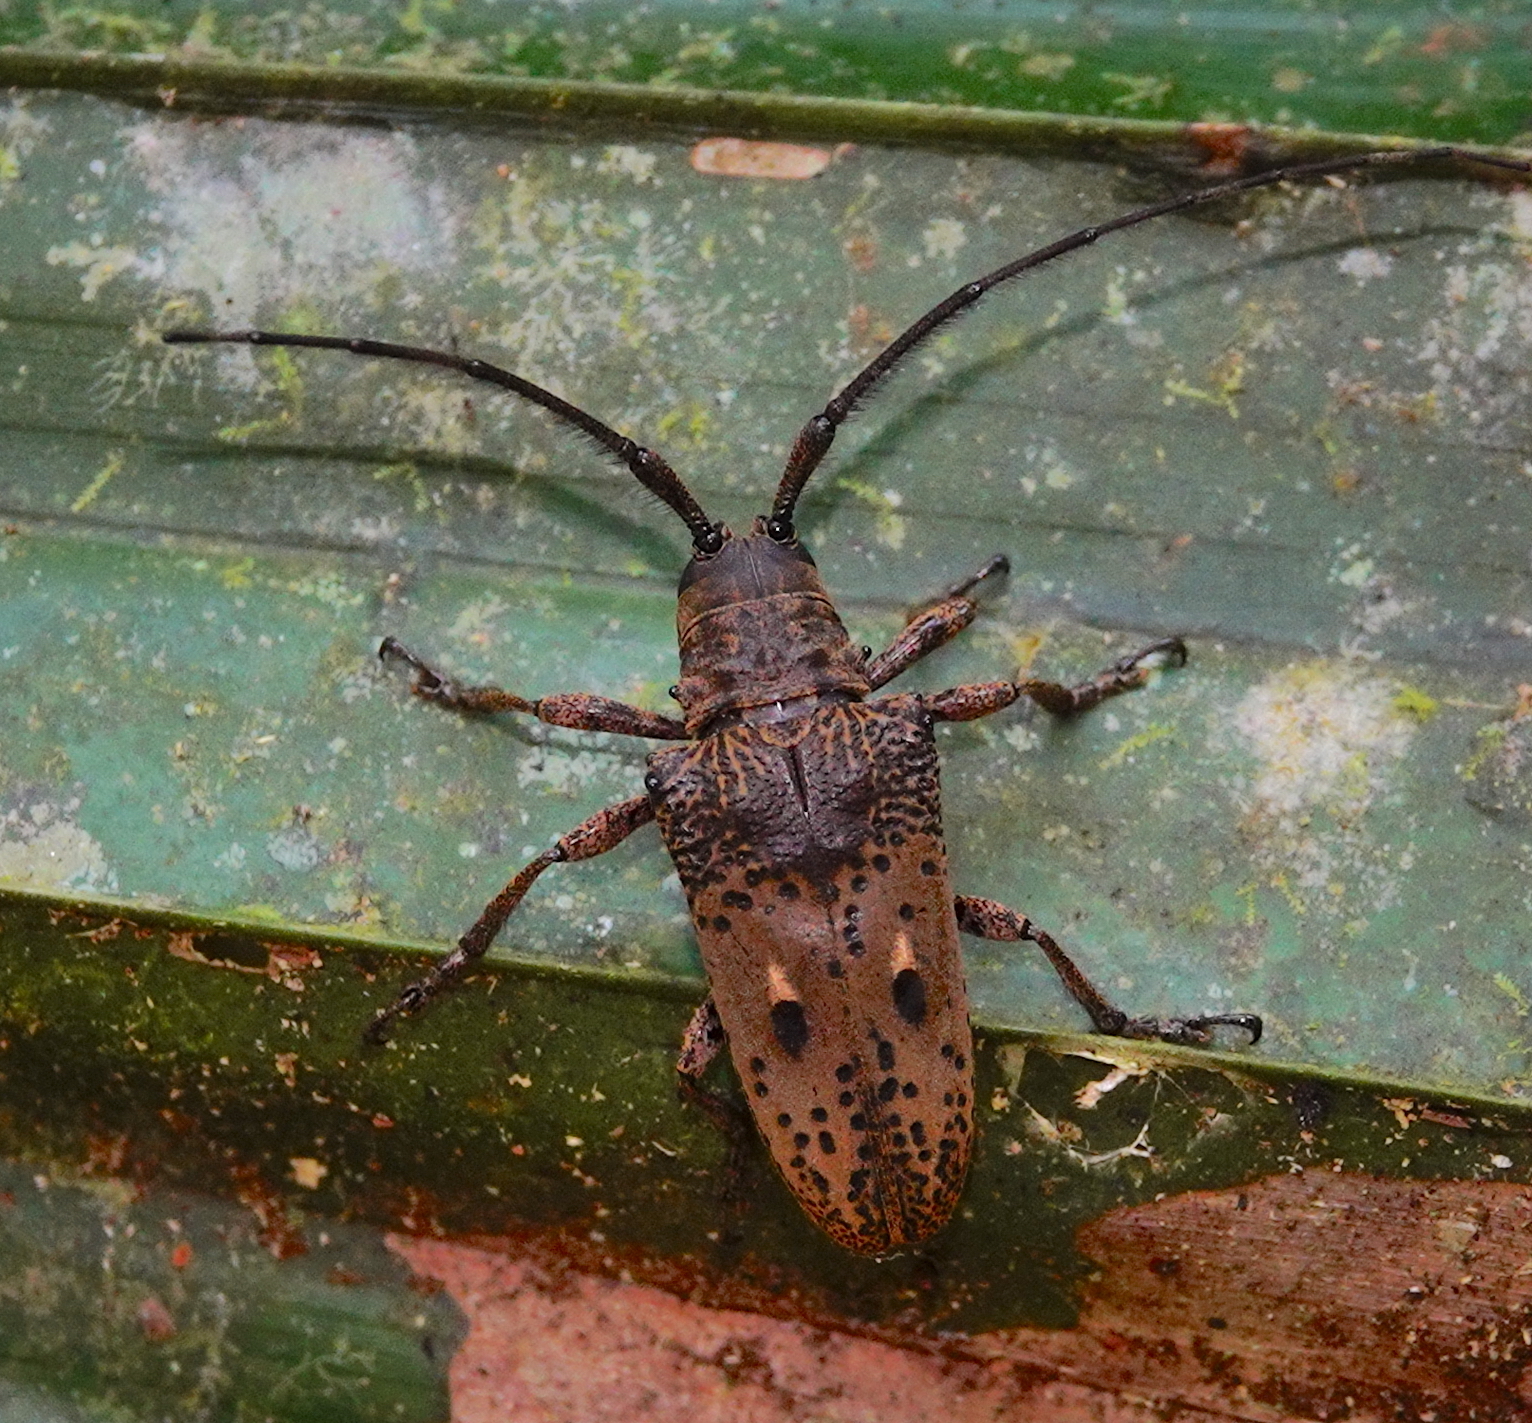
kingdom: Animalia
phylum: Arthropoda
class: Insecta
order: Coleoptera
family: Cerambycidae
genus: Tybalmia
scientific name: Tybalmia pupillata
